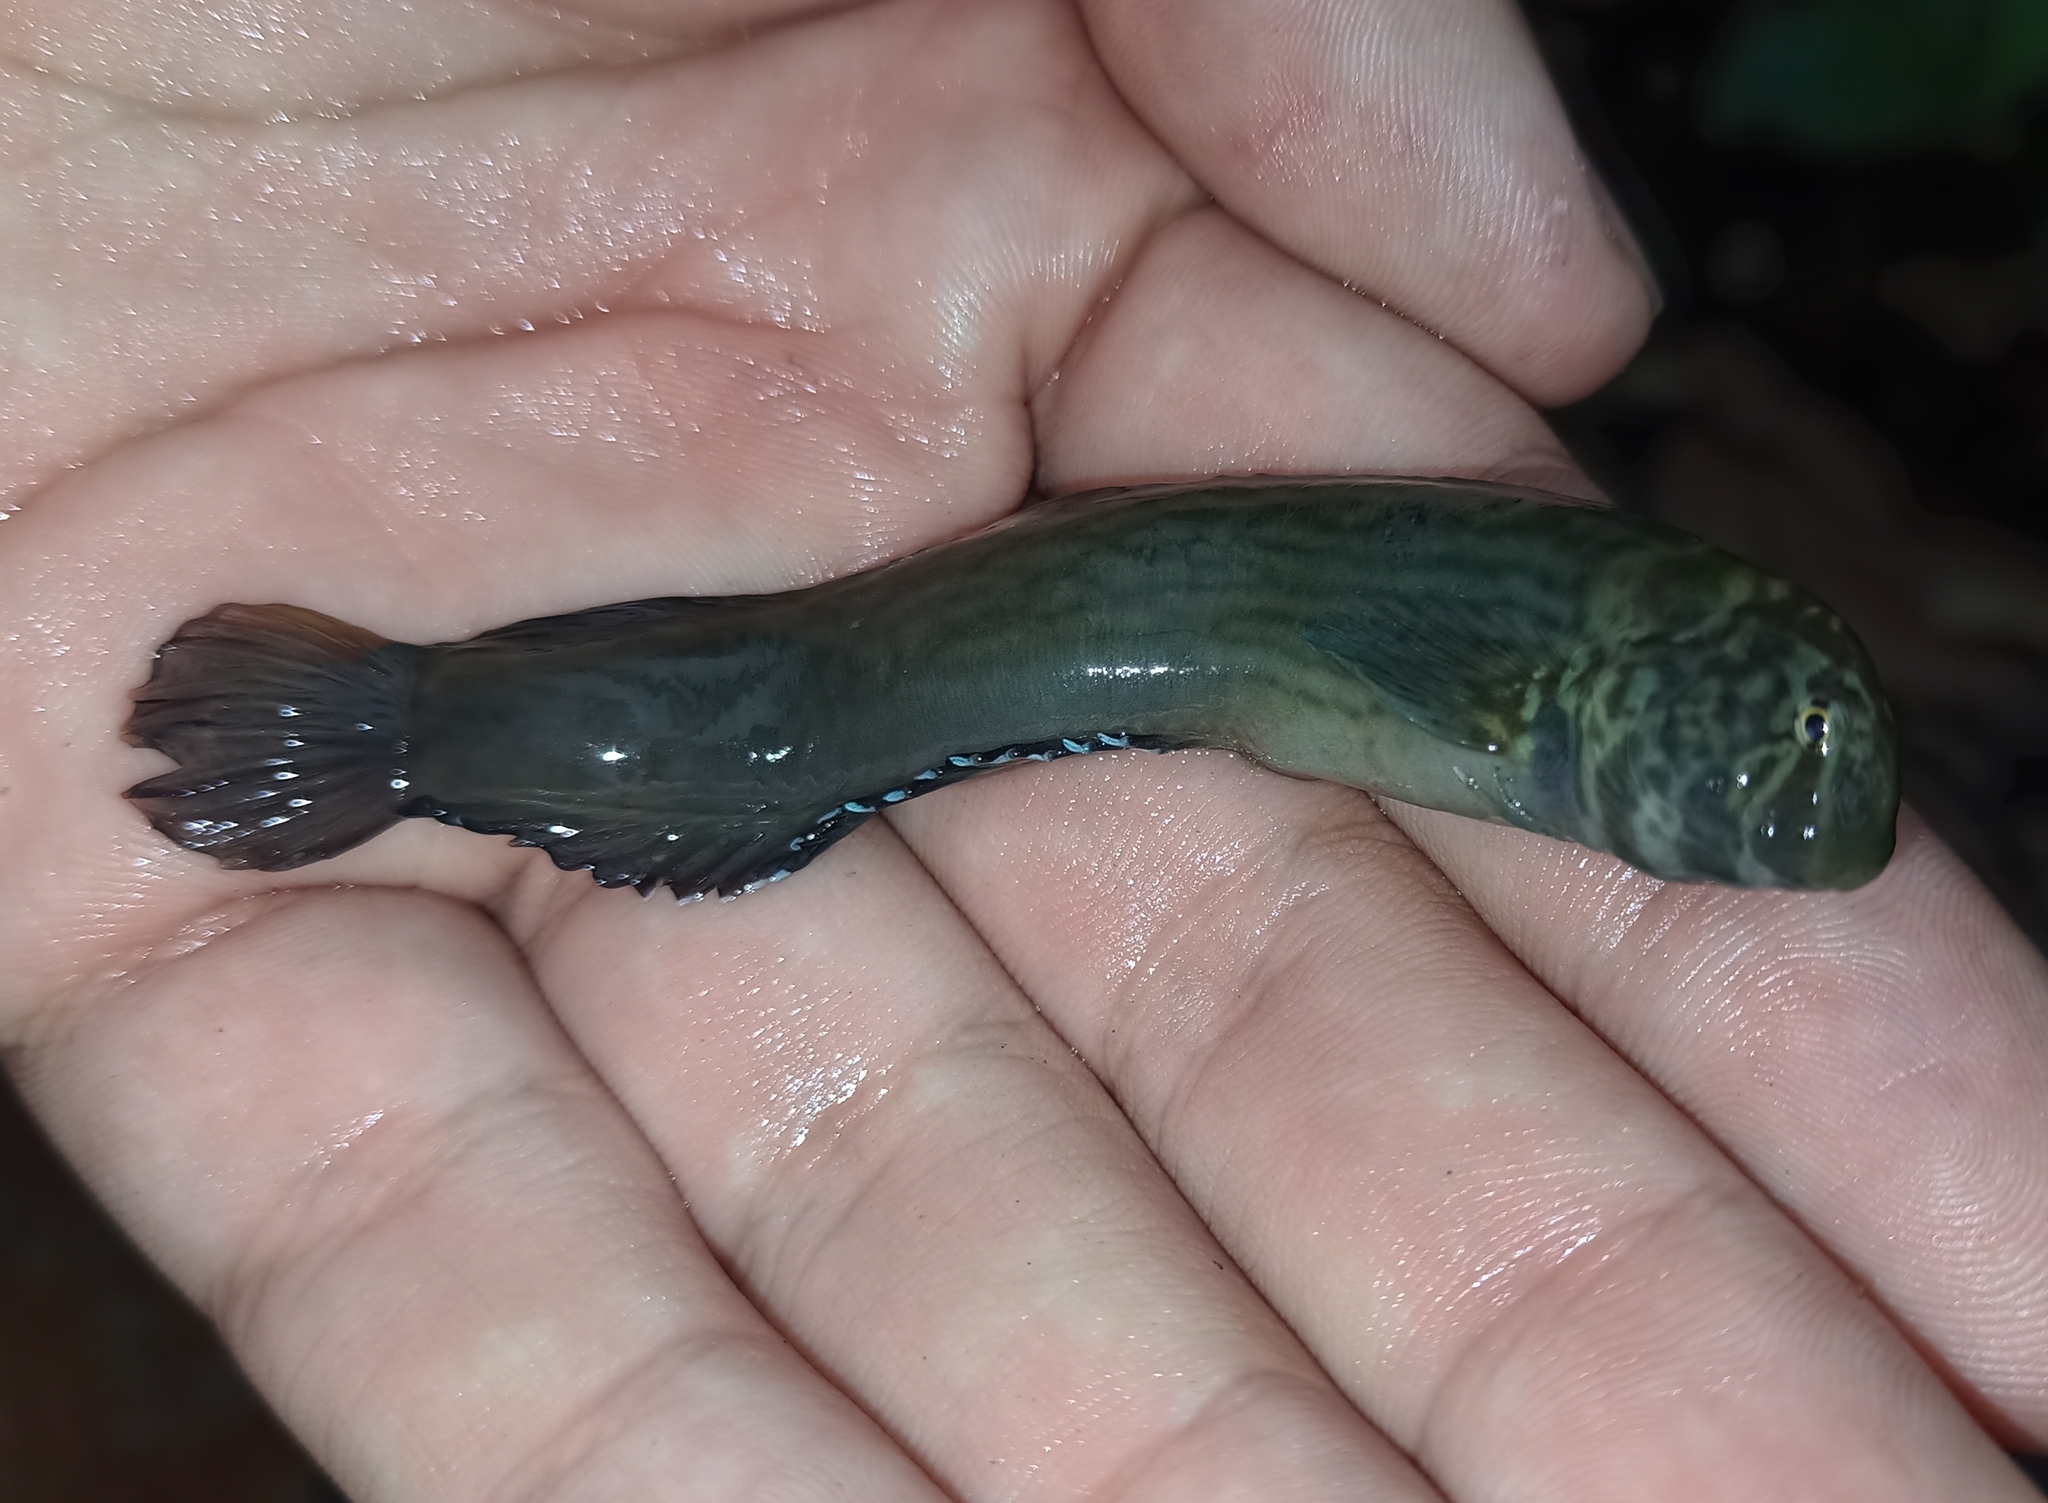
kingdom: Animalia
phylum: Chordata
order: Perciformes
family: Blenniidae
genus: Omobranchus
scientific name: Omobranchus punctatus
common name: Muzzled blenny
